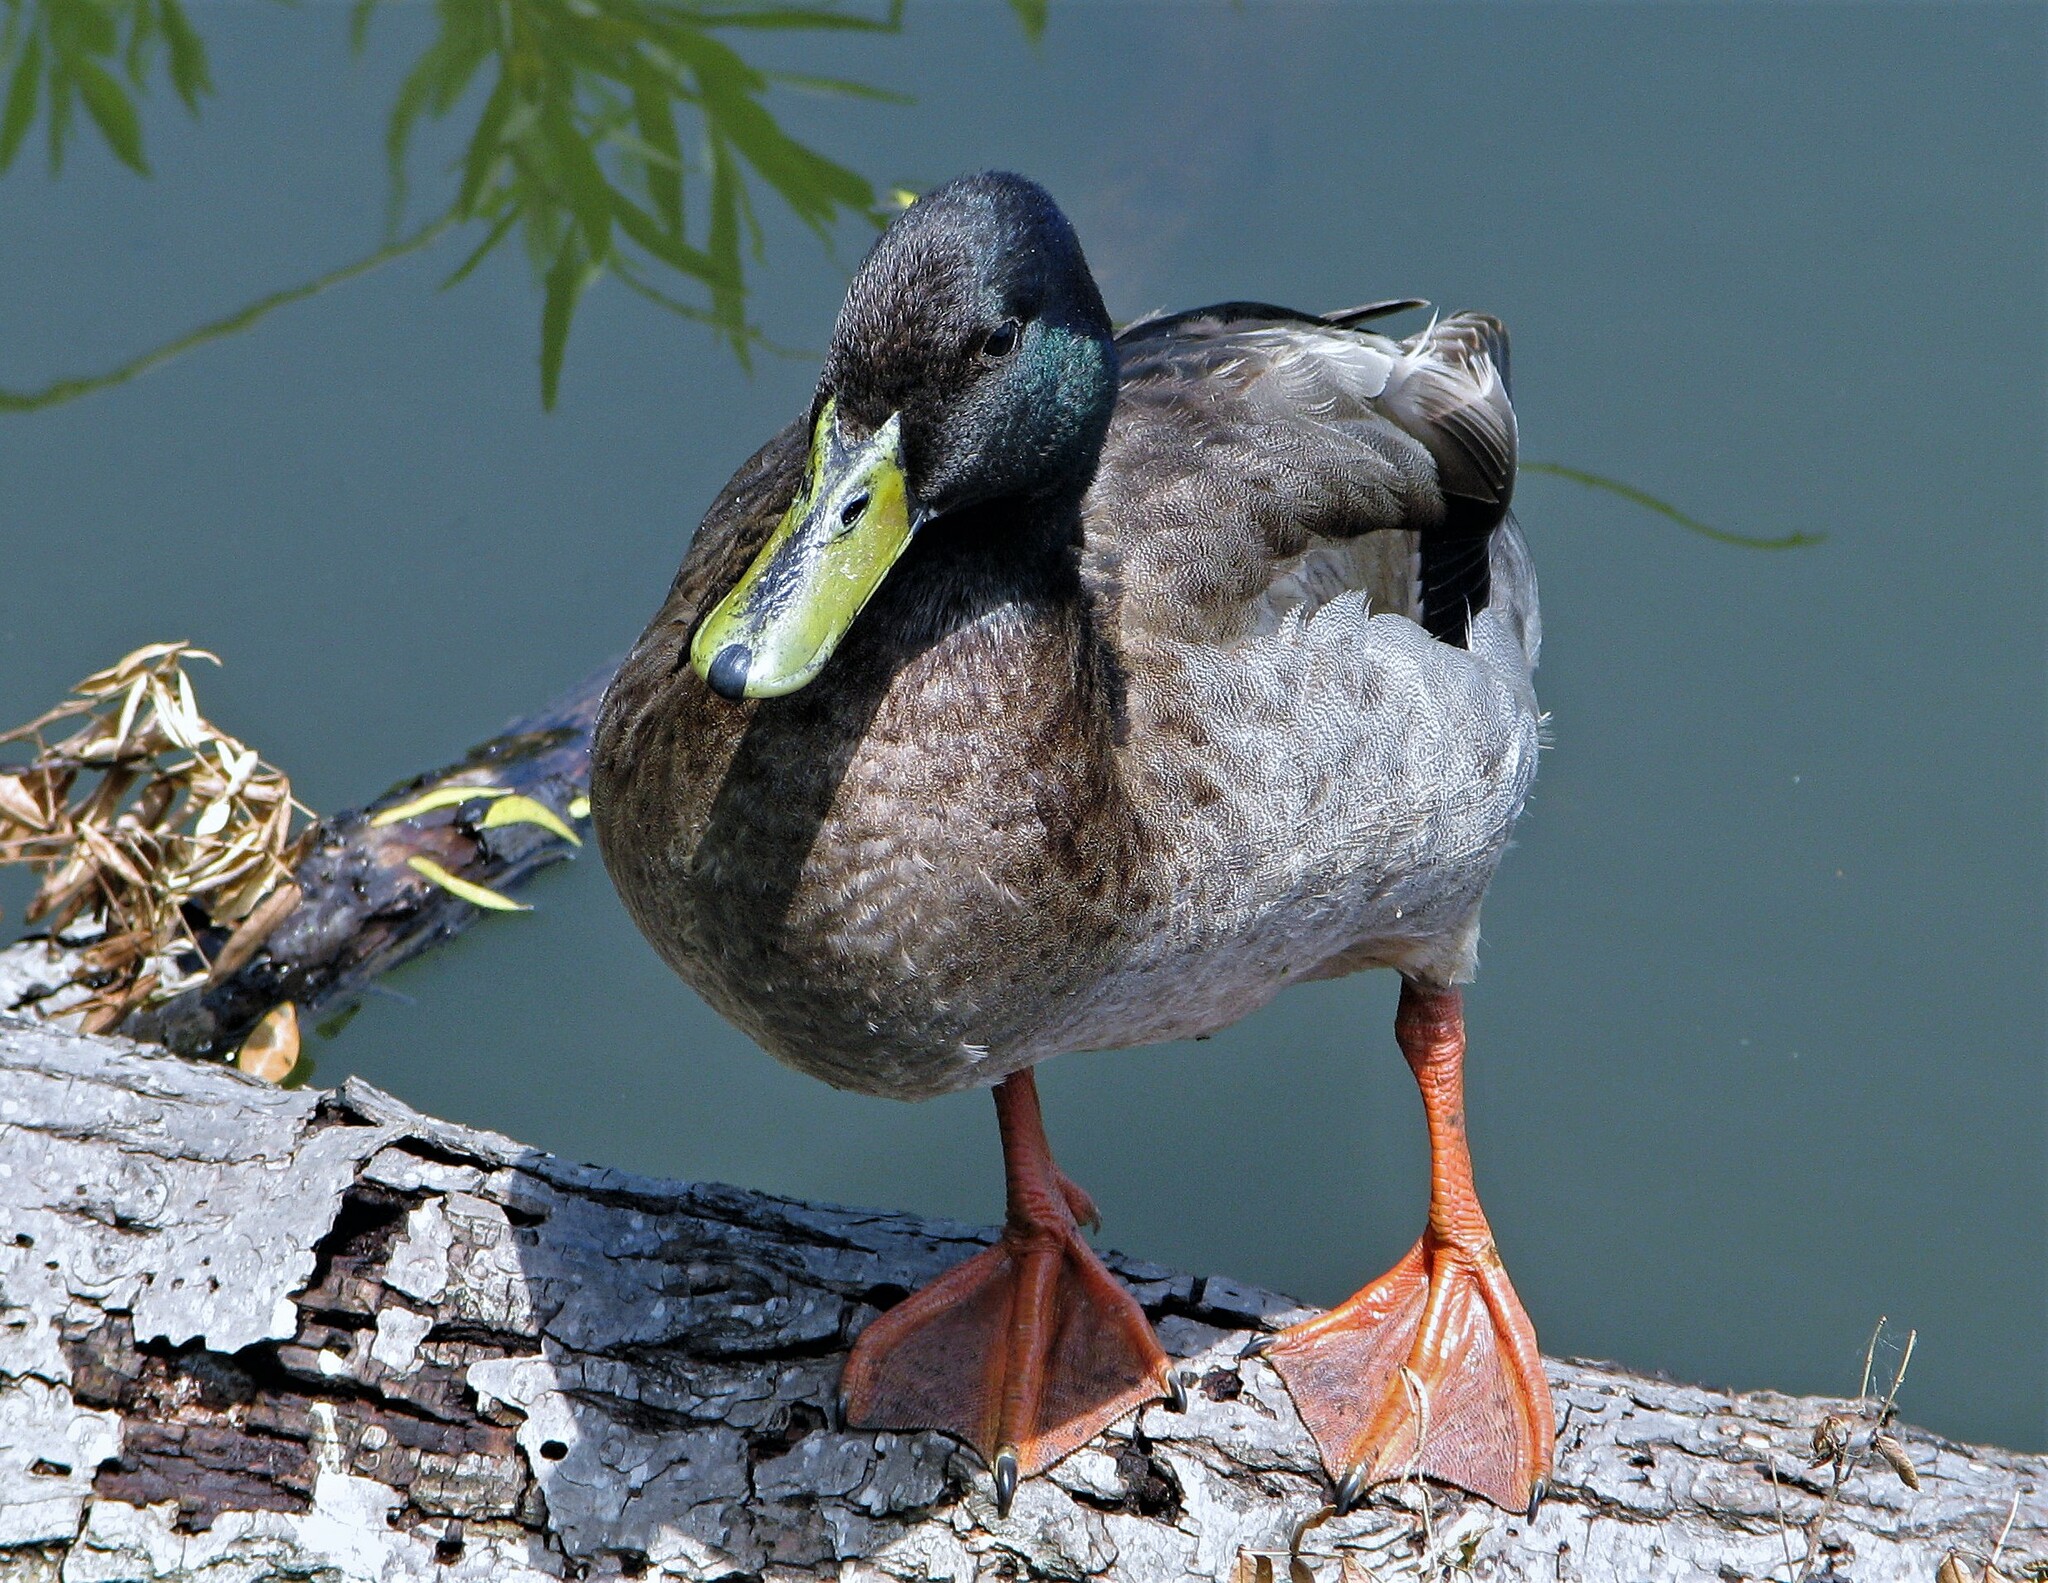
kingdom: Animalia
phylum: Chordata
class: Aves
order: Anseriformes
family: Anatidae
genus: Anas
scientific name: Anas platyrhynchos
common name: Mallard
